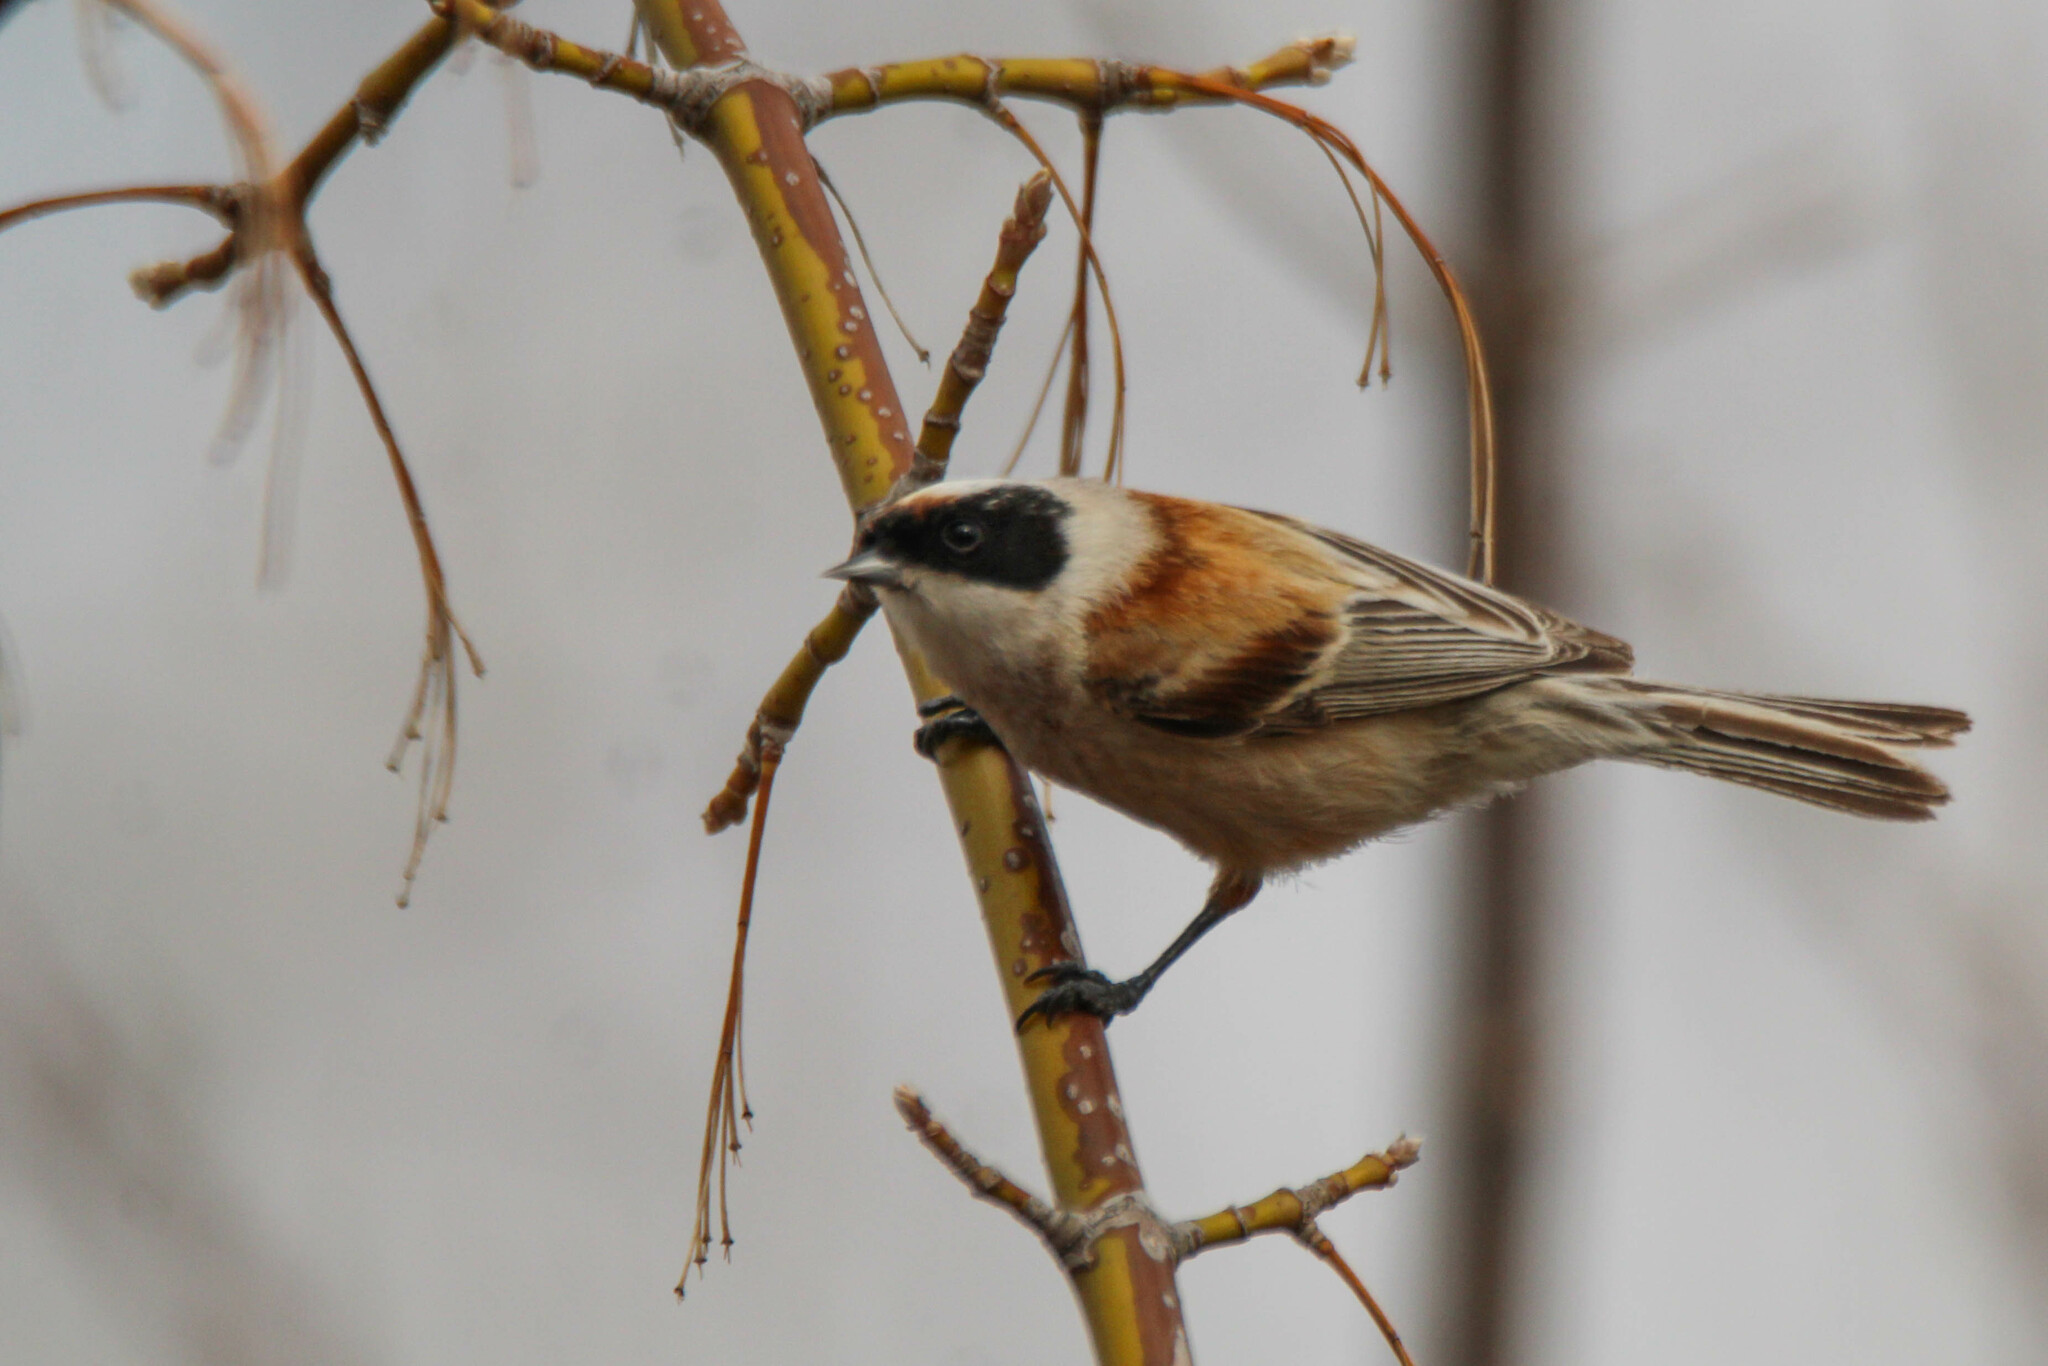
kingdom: Animalia
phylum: Chordata
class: Aves
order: Passeriformes
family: Remizidae
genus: Remiz
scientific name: Remiz pendulinus
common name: Eurasian penduline tit
